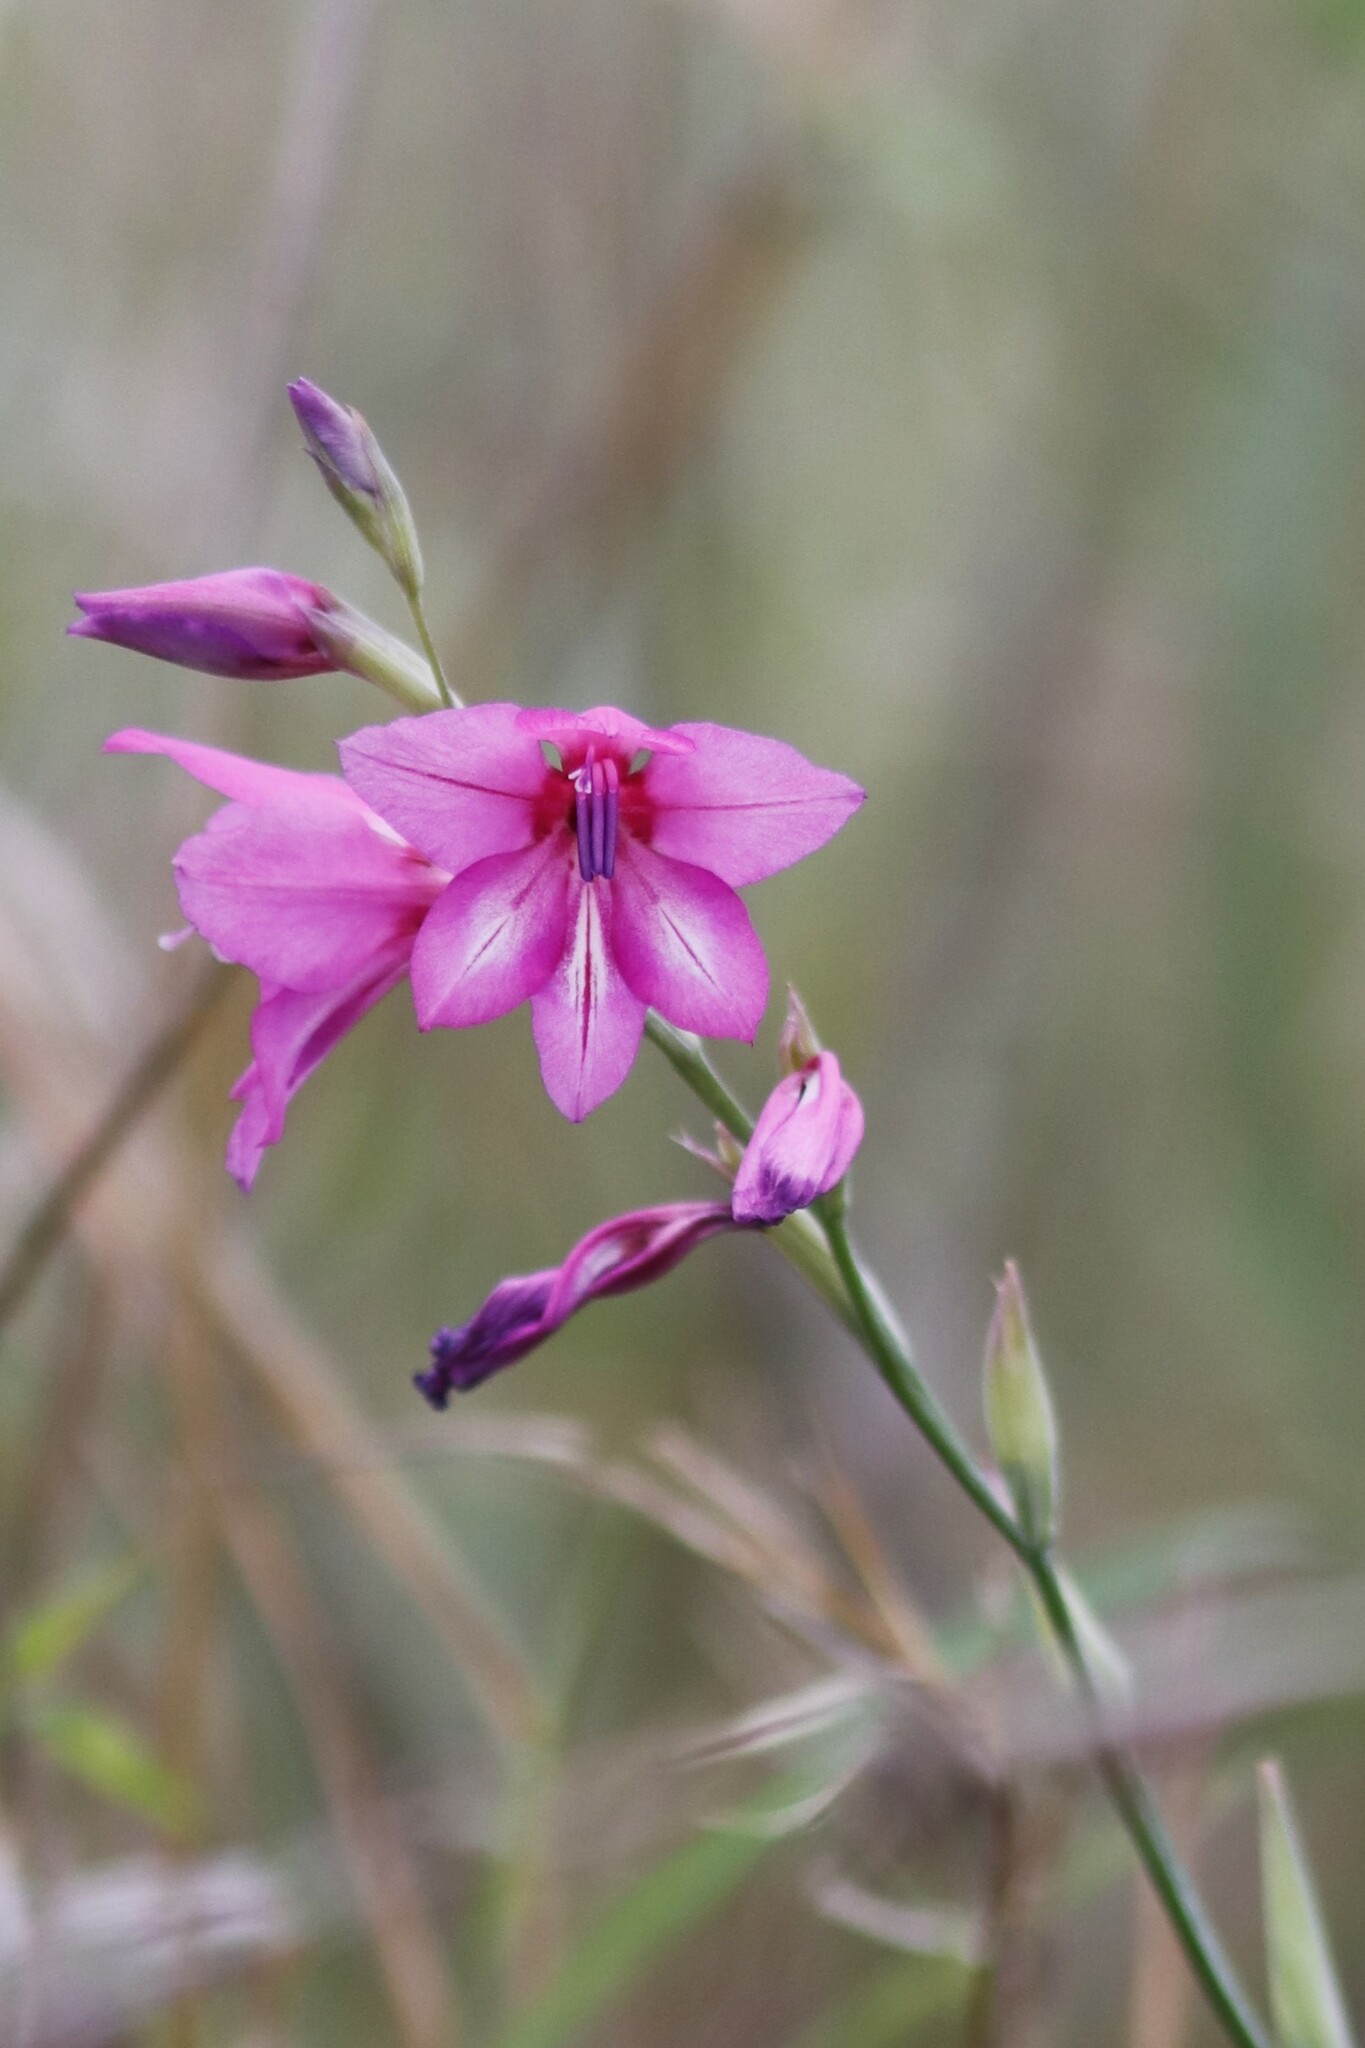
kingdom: Plantae
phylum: Tracheophyta
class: Liliopsida
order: Asparagales
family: Iridaceae
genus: Gladiolus
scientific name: Gladiolus brachyphyllus
